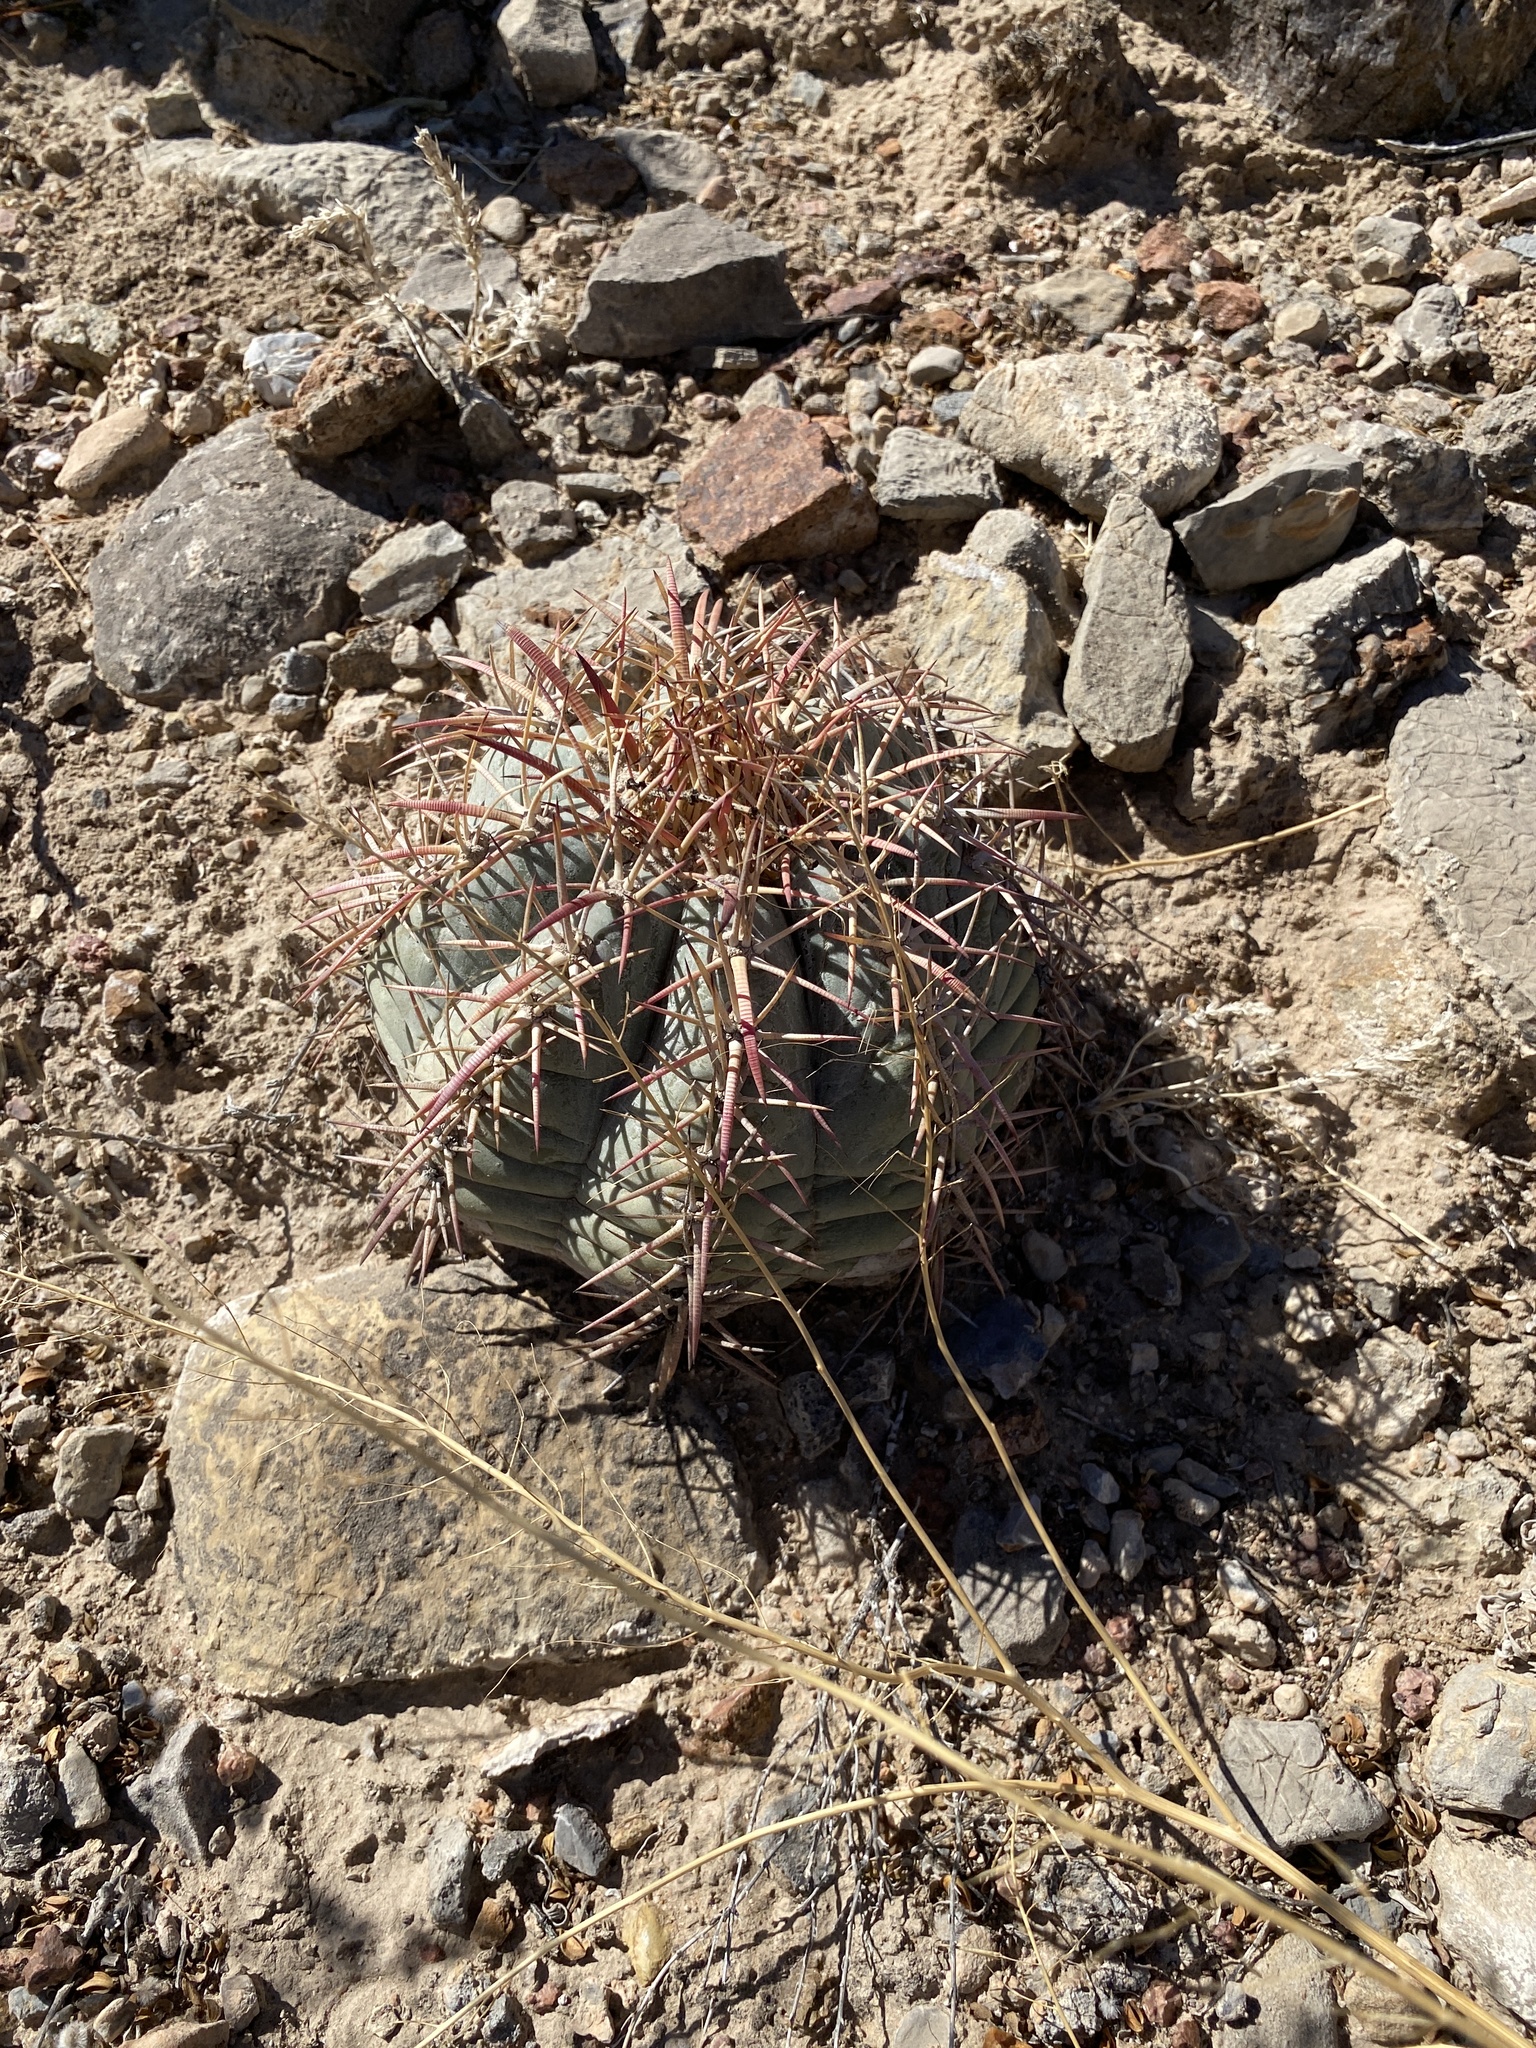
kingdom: Plantae
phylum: Tracheophyta
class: Magnoliopsida
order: Caryophyllales
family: Cactaceae
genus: Echinocactus
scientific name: Echinocactus horizonthalonius
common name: Devilshead
